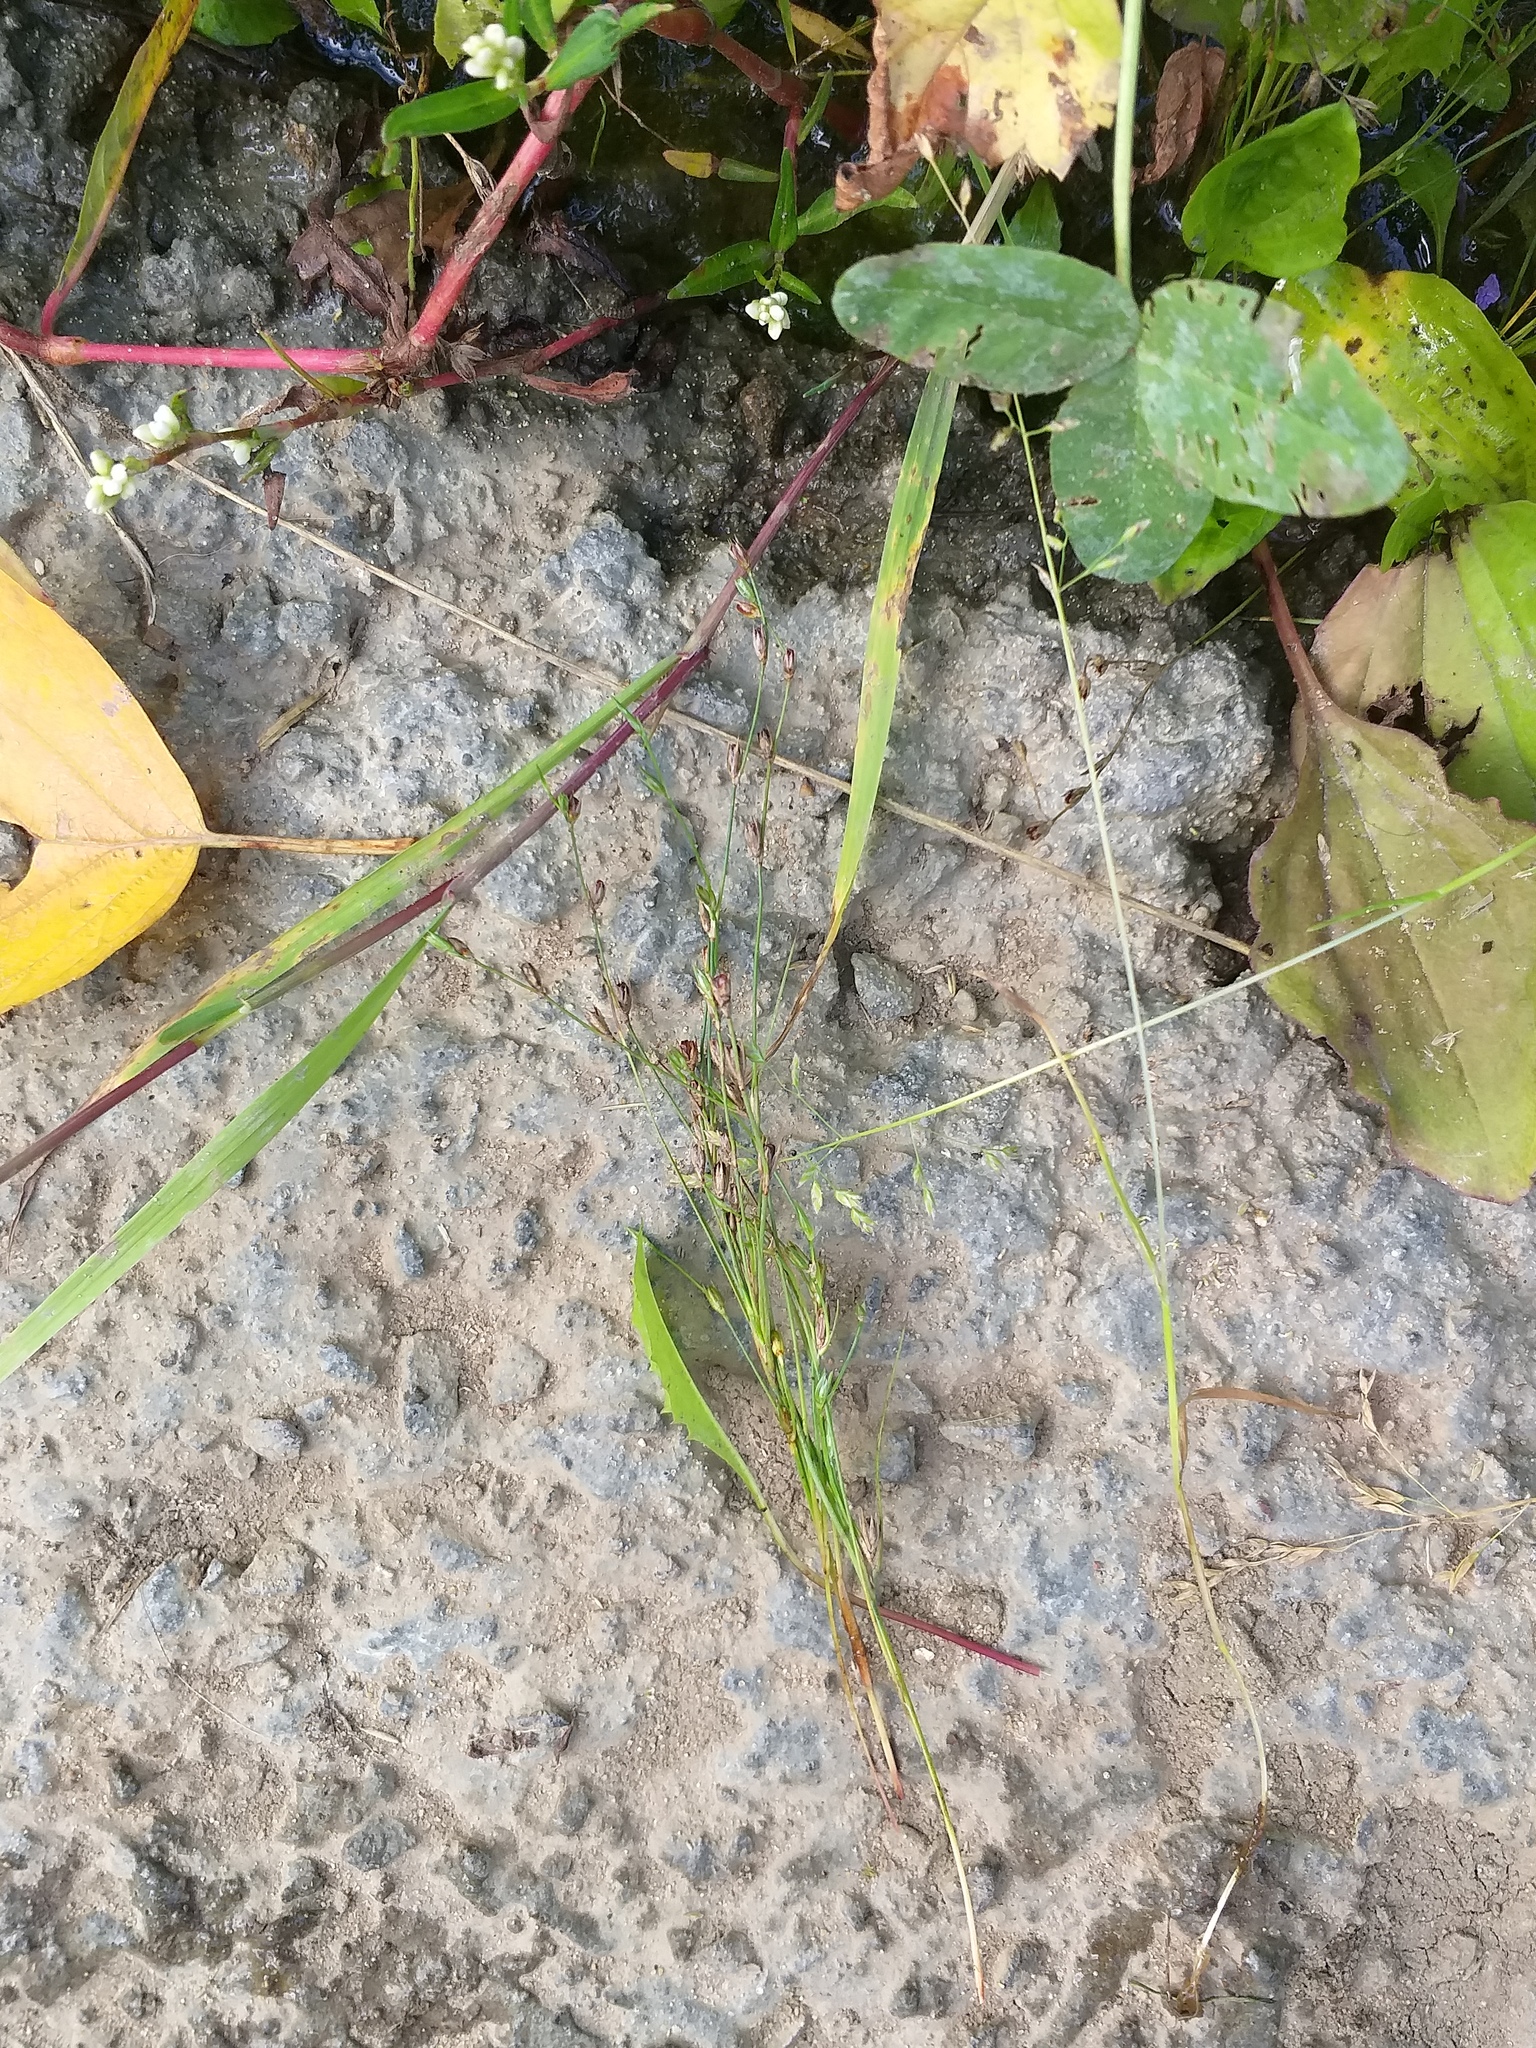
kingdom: Plantae
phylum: Tracheophyta
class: Liliopsida
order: Poales
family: Juncaceae
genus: Juncus
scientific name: Juncus bufonius
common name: Toad rush
